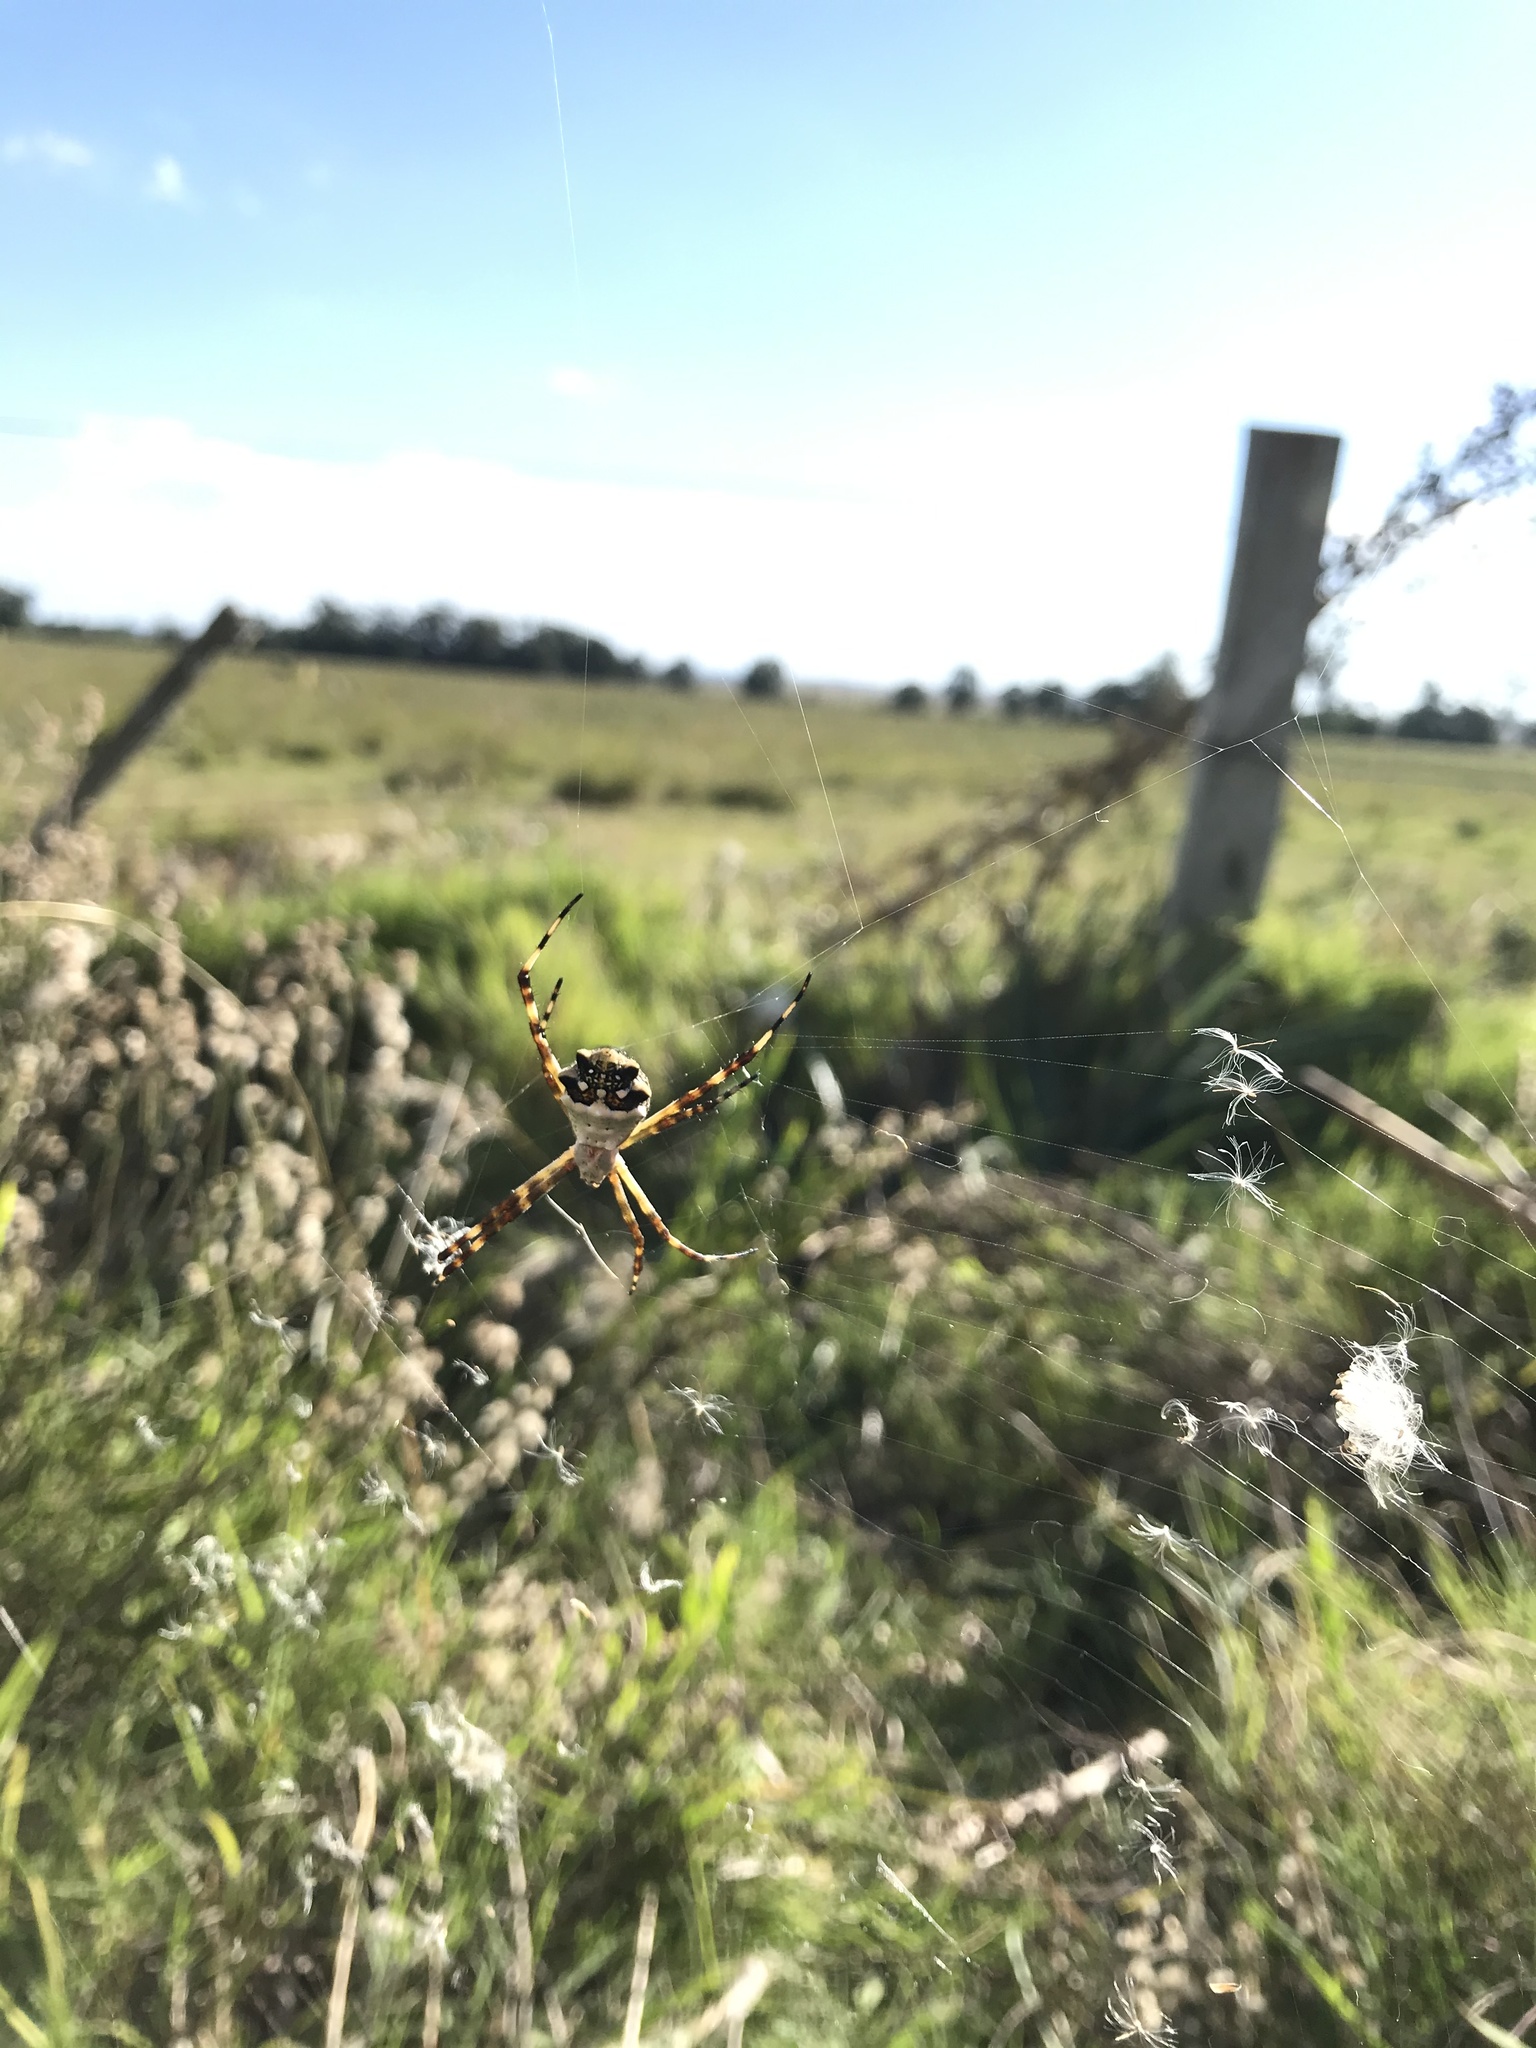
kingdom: Animalia
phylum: Arthropoda
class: Arachnida
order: Araneae
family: Araneidae
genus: Argiope
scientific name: Argiope argentata
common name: Orb weavers
